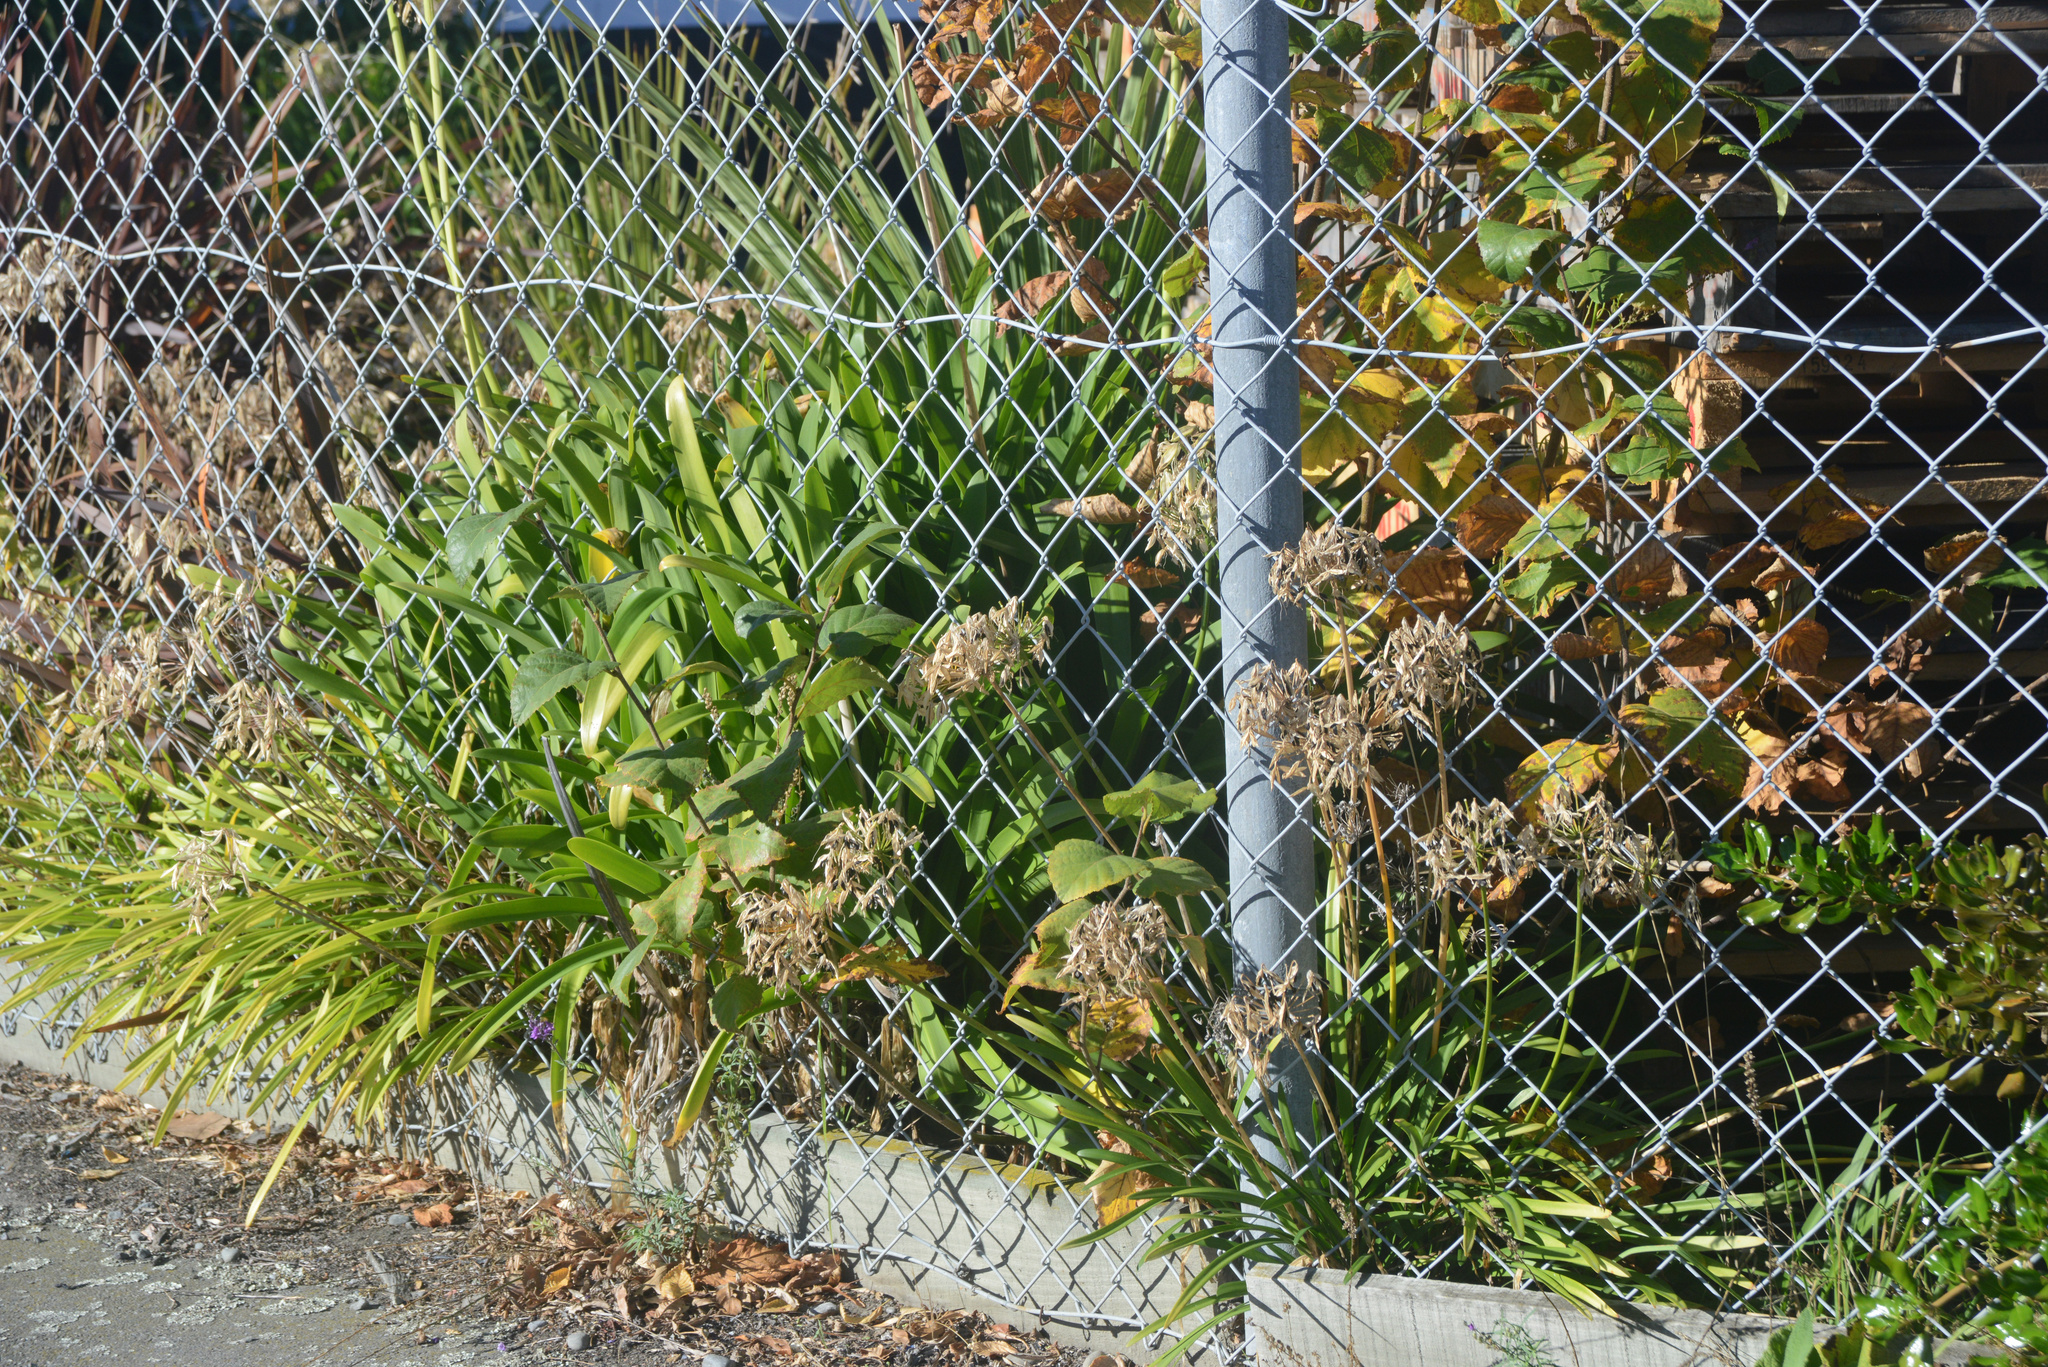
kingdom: Plantae
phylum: Tracheophyta
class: Liliopsida
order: Asparagales
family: Amaryllidaceae
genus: Agapanthus
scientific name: Agapanthus praecox
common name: African-lily
